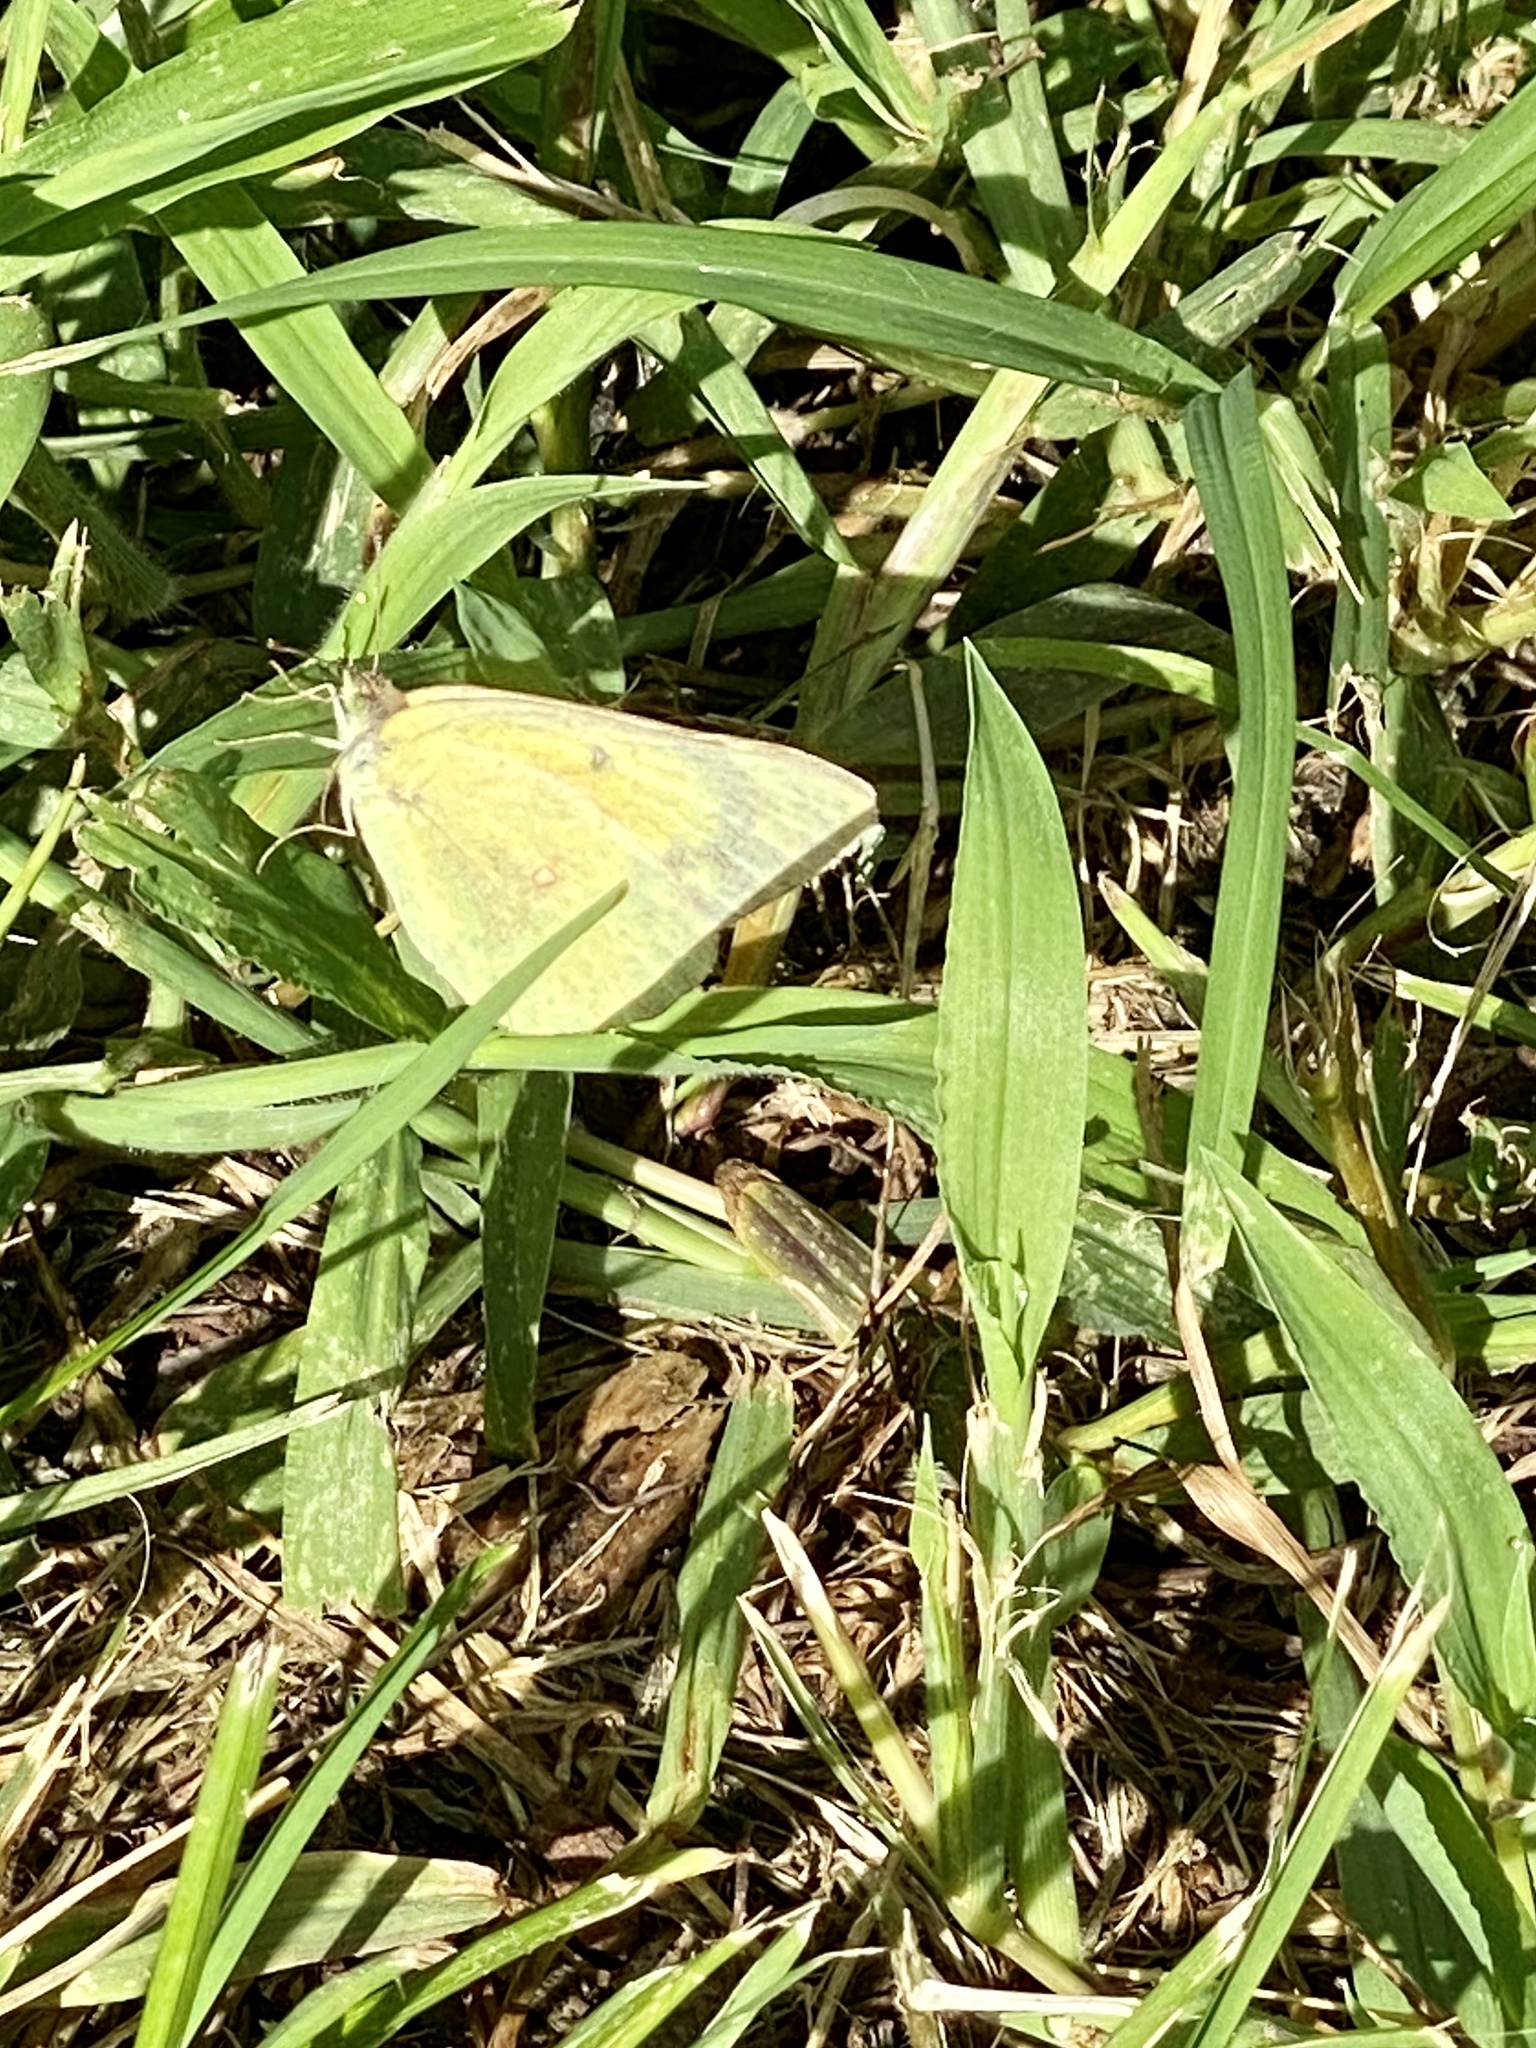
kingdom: Animalia
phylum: Arthropoda
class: Insecta
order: Lepidoptera
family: Pieridae
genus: Colias
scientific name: Colias eurytheme
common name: Alfalfa butterfly
